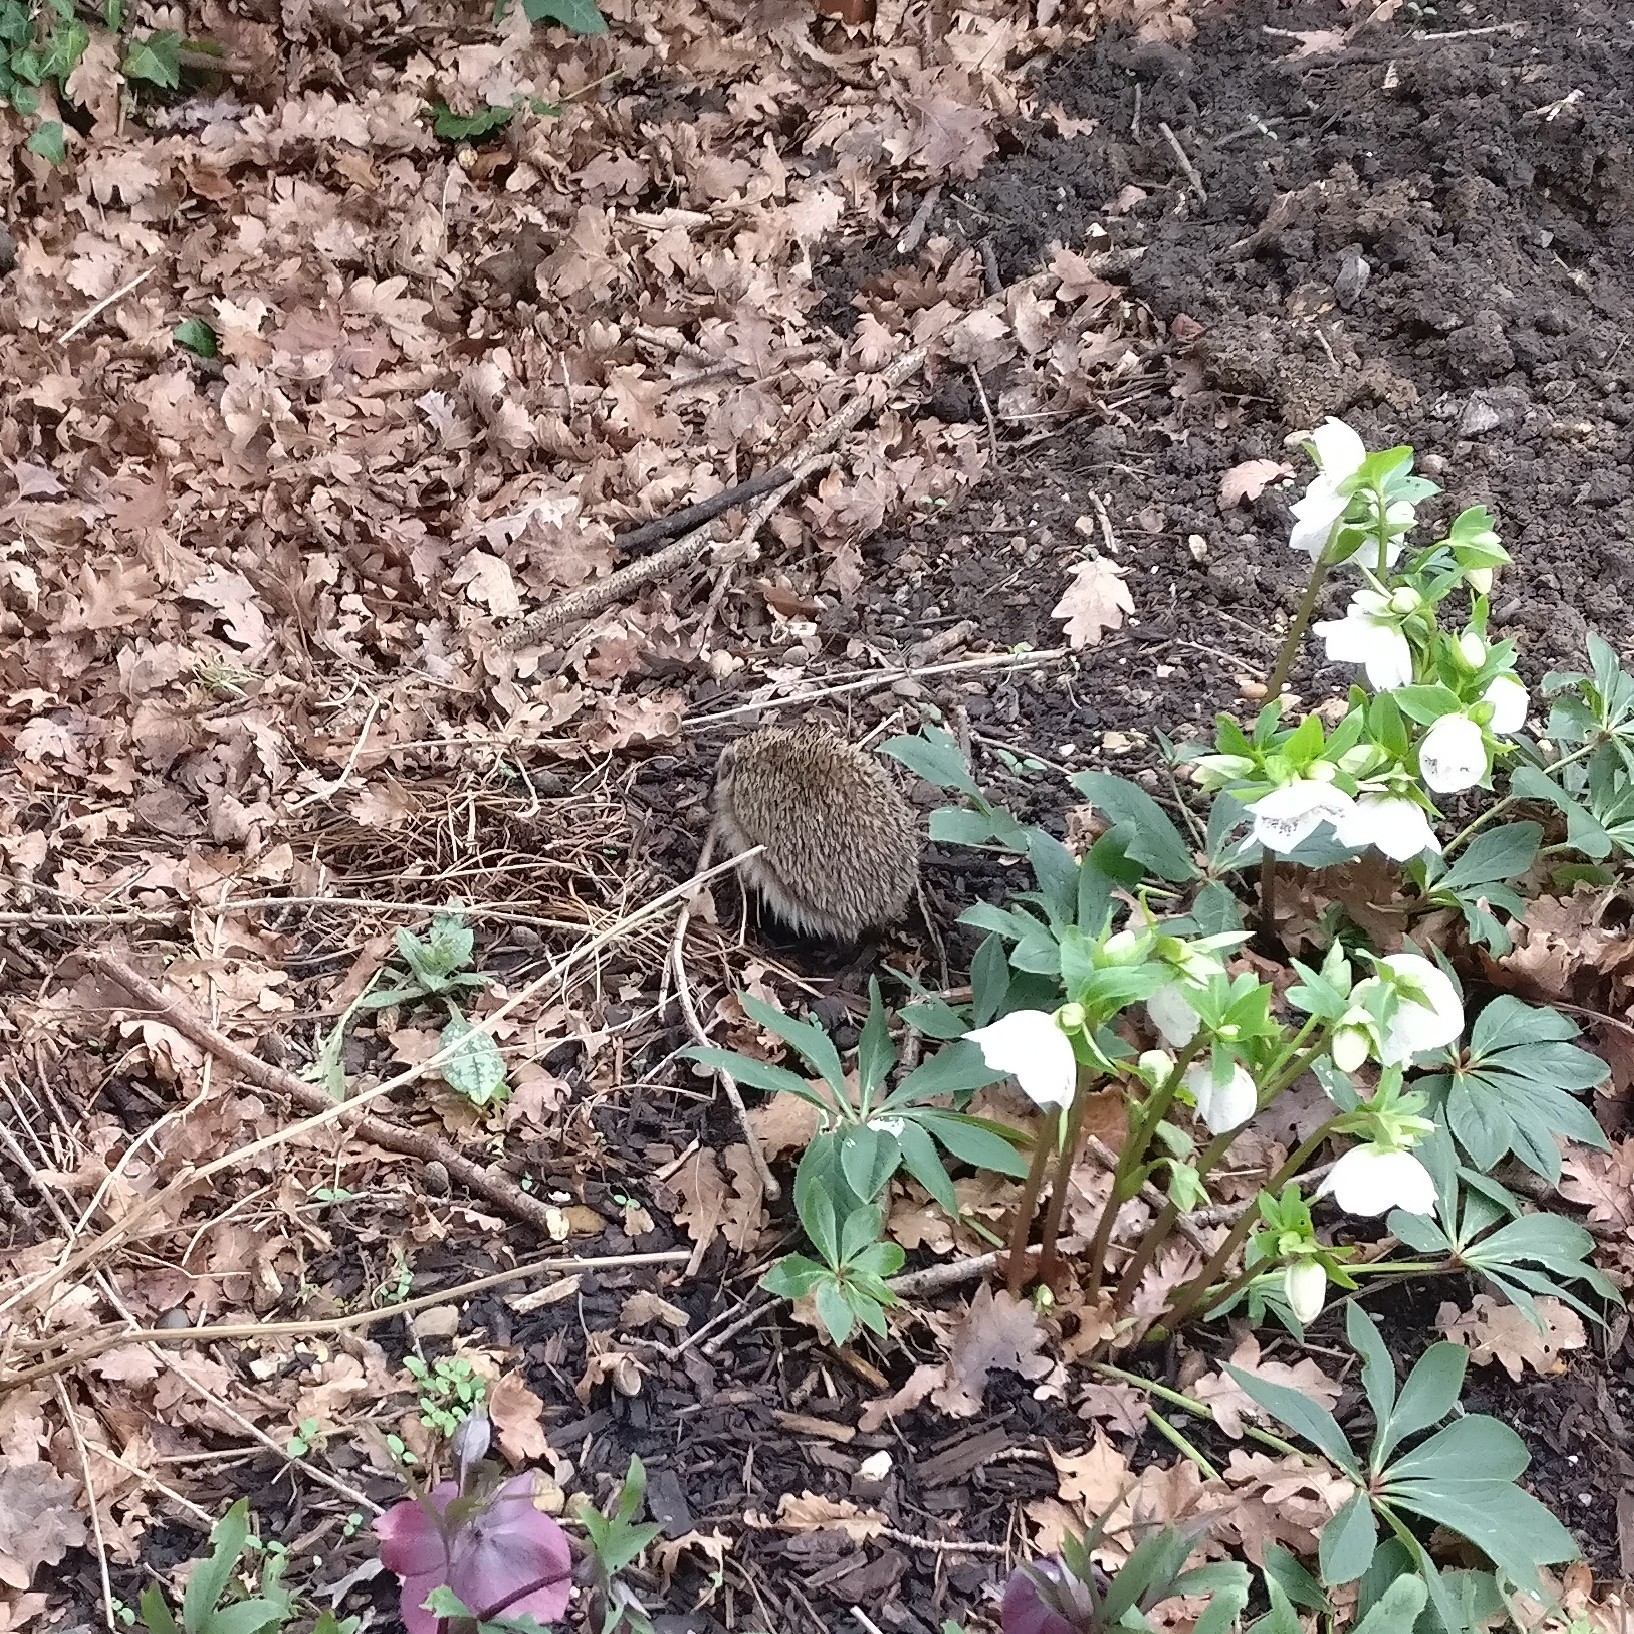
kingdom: Animalia
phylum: Chordata
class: Mammalia
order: Erinaceomorpha
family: Erinaceidae
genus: Erinaceus
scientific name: Erinaceus europaeus
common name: West european hedgehog
